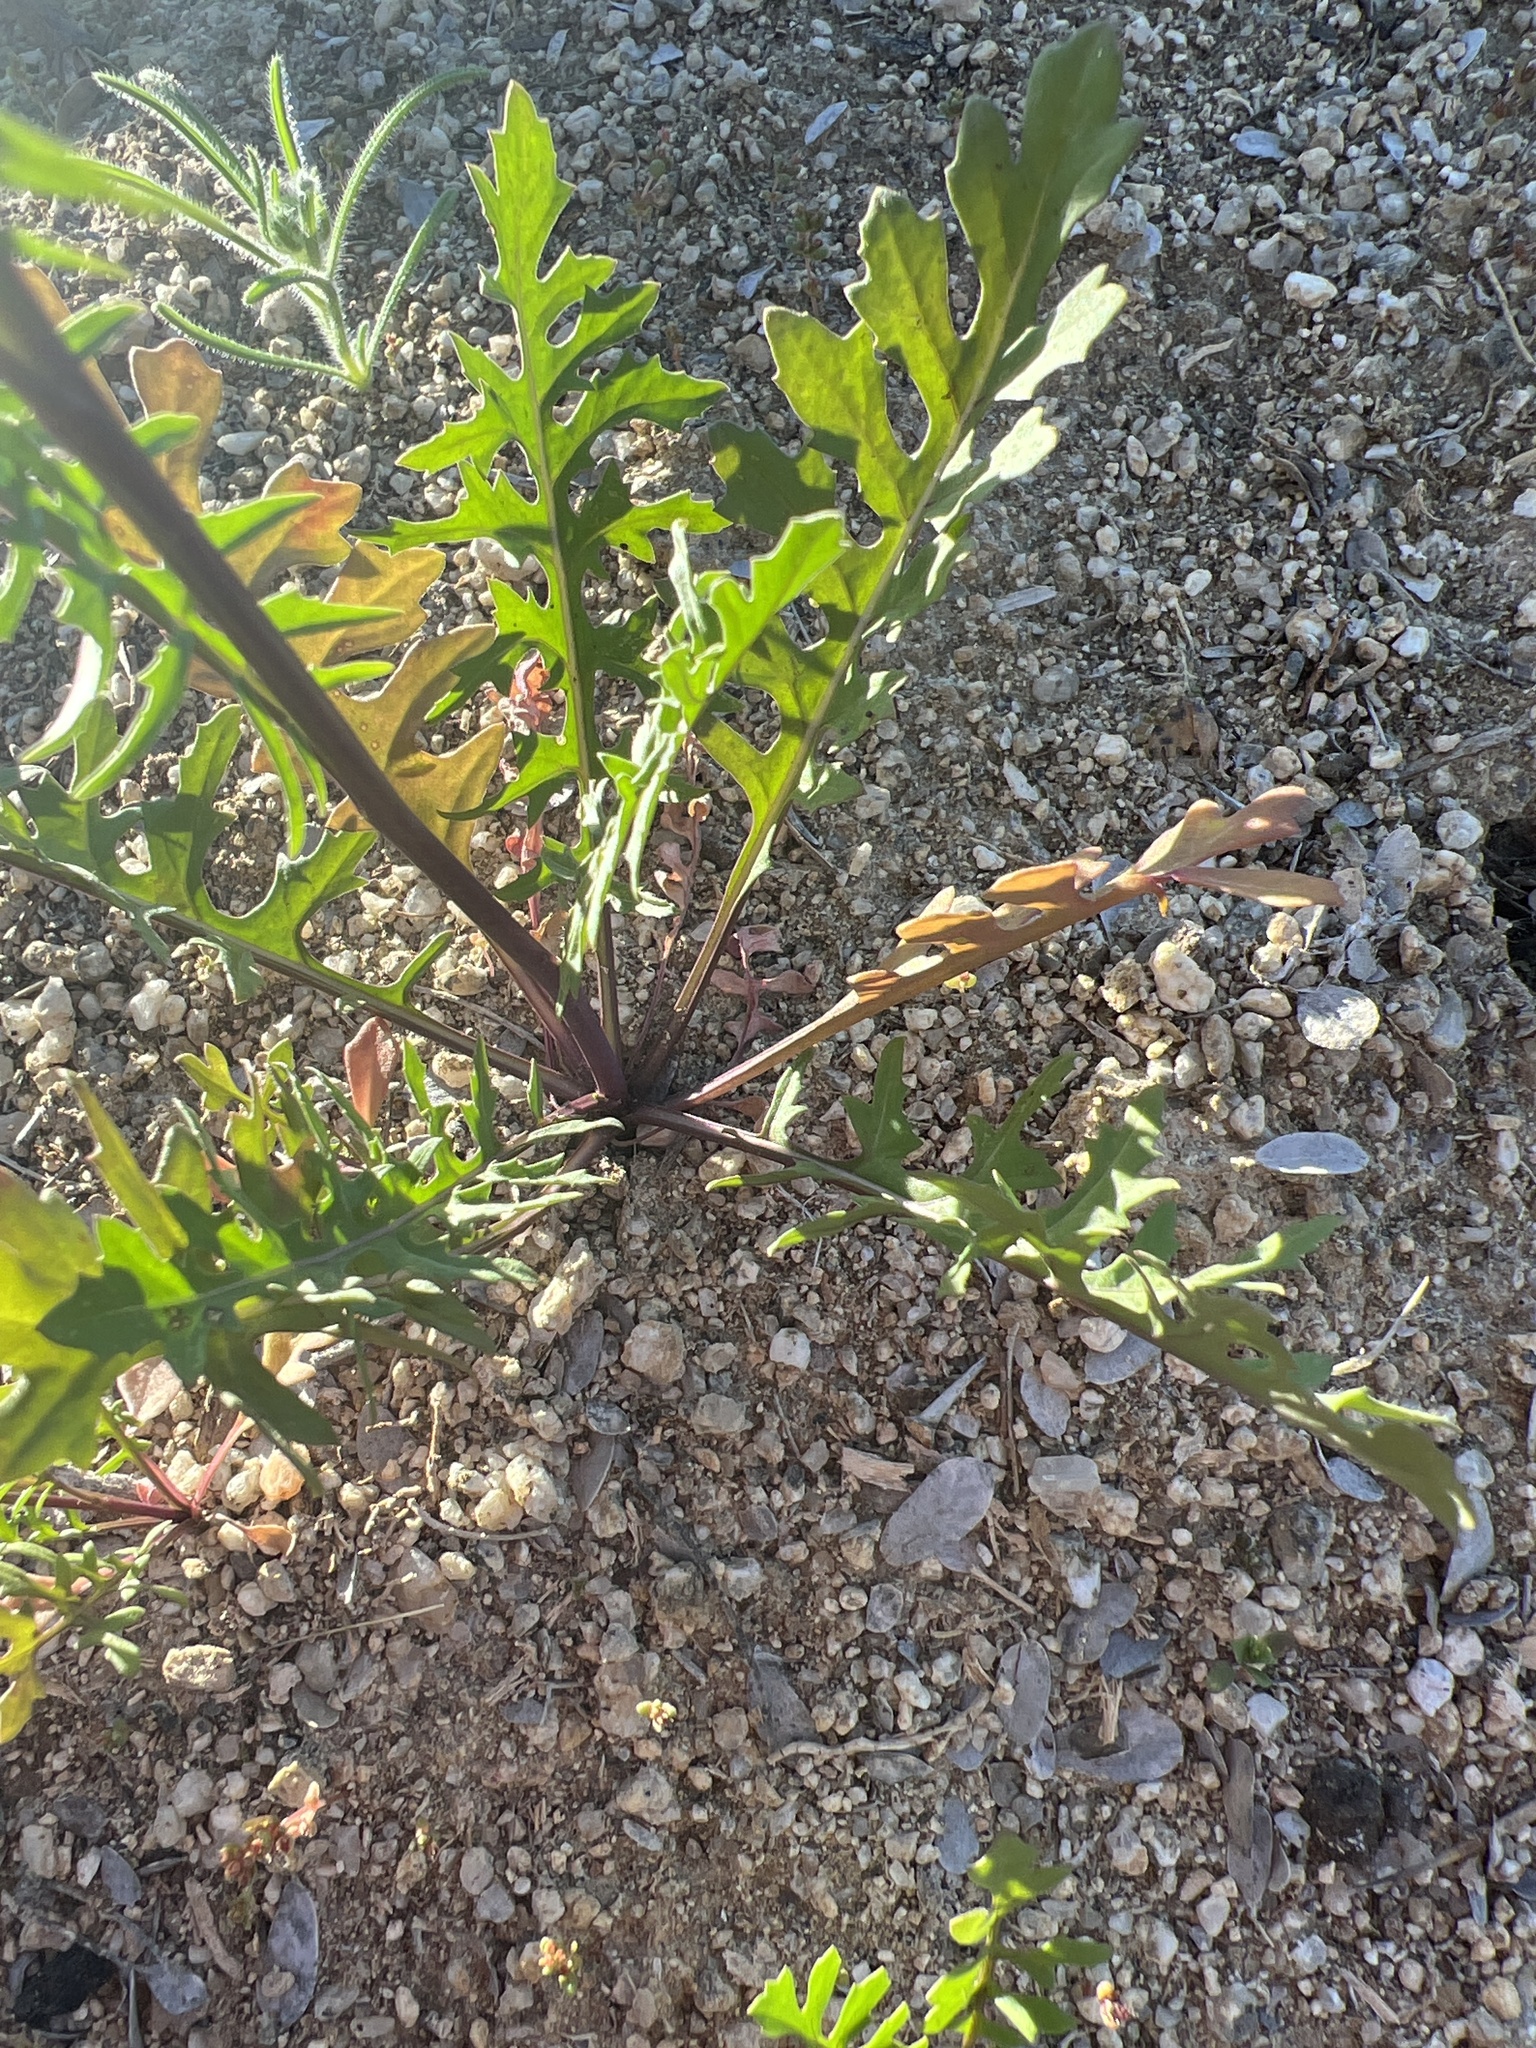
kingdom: Plantae
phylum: Tracheophyta
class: Magnoliopsida
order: Brassicales
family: Brassicaceae
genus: Sisymbrium
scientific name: Sisymbrium irio
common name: London rocket
